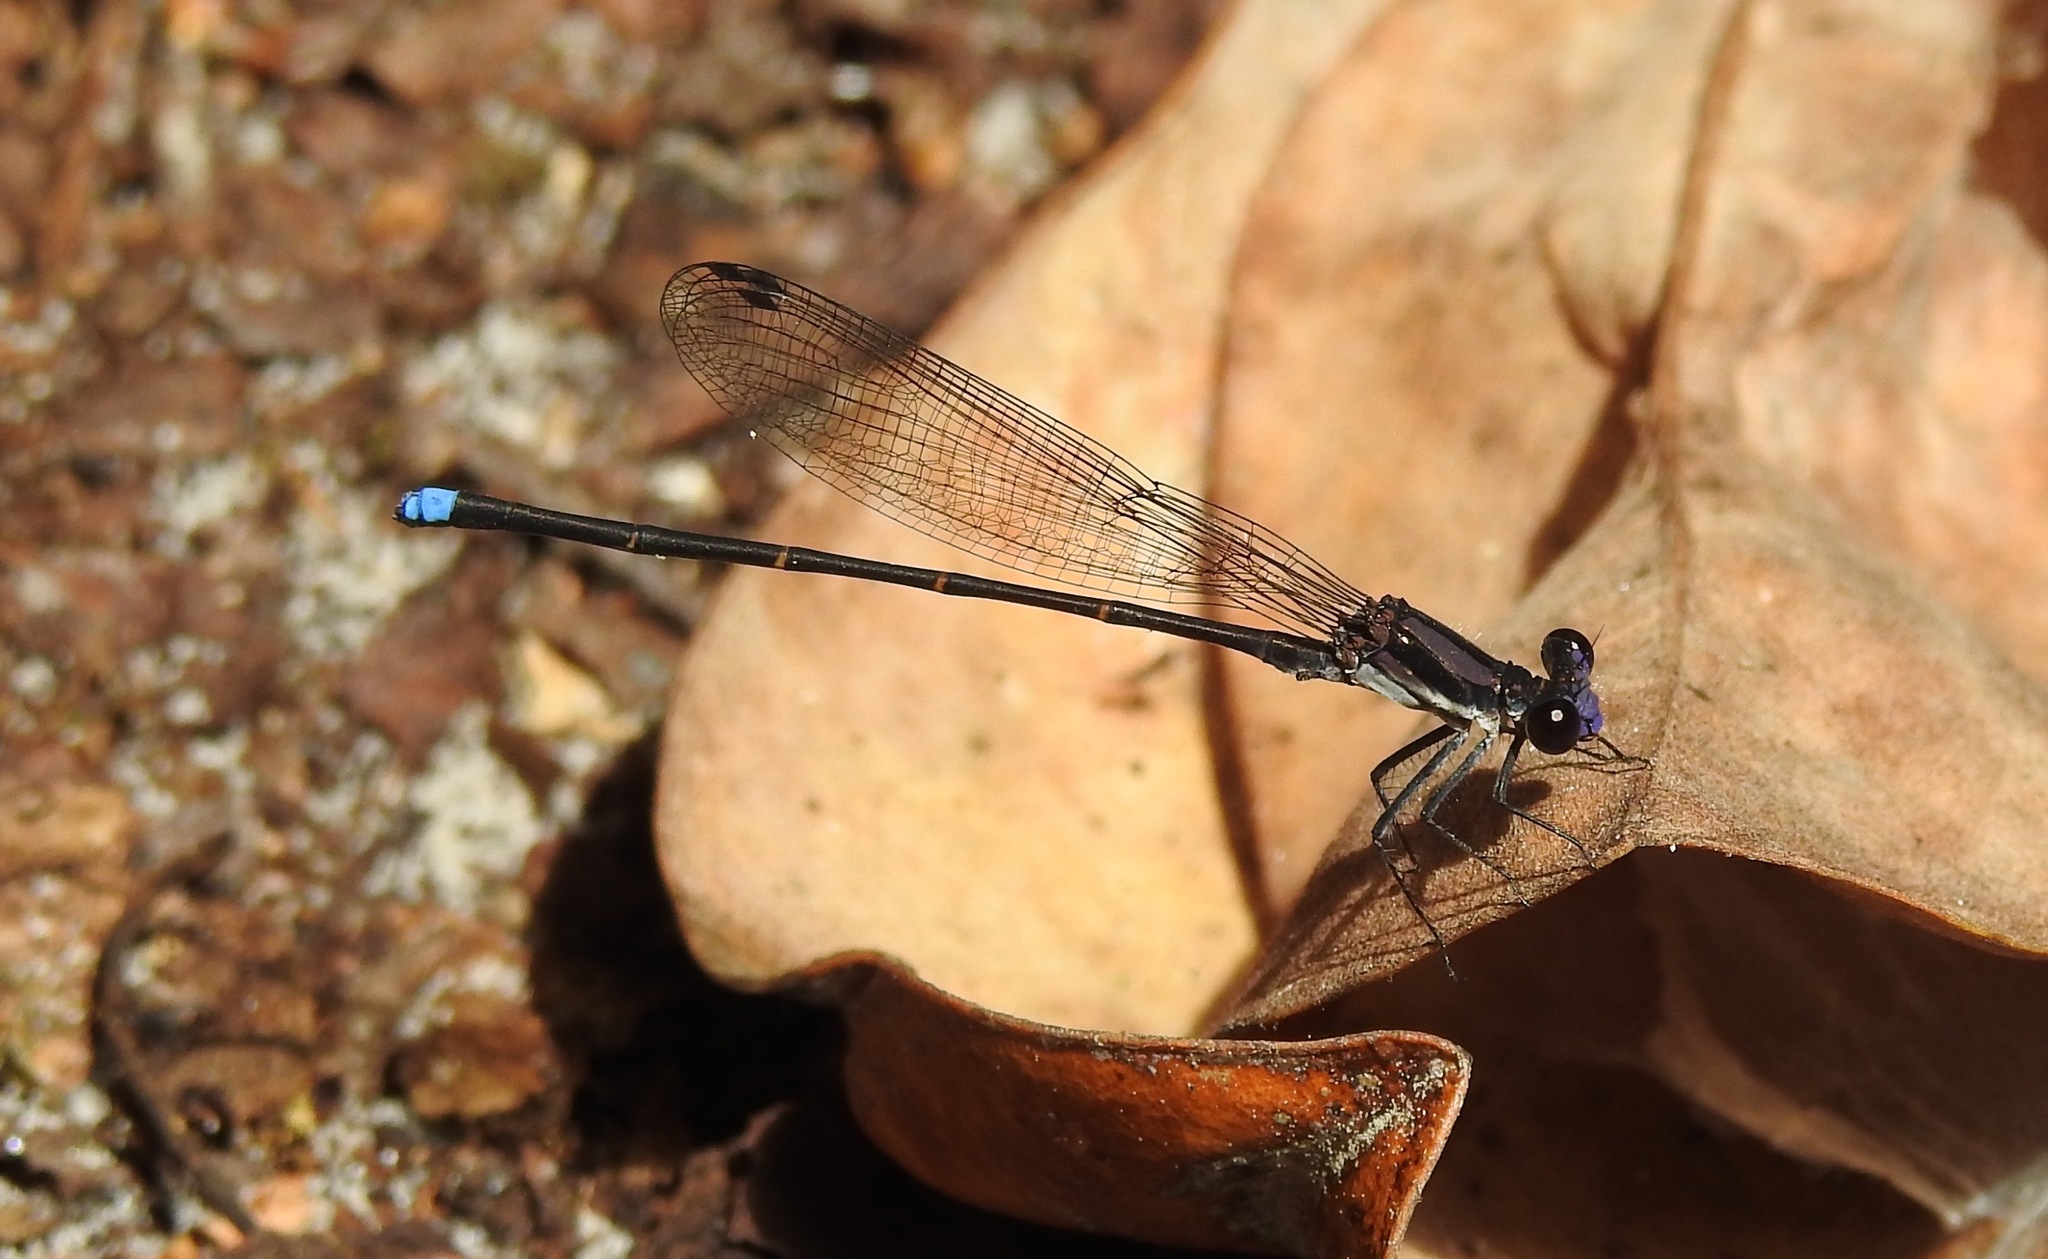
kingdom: Animalia
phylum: Arthropoda
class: Insecta
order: Odonata
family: Coenagrionidae
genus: Argia
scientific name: Argia tibialis
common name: Blue-tipped dancer
